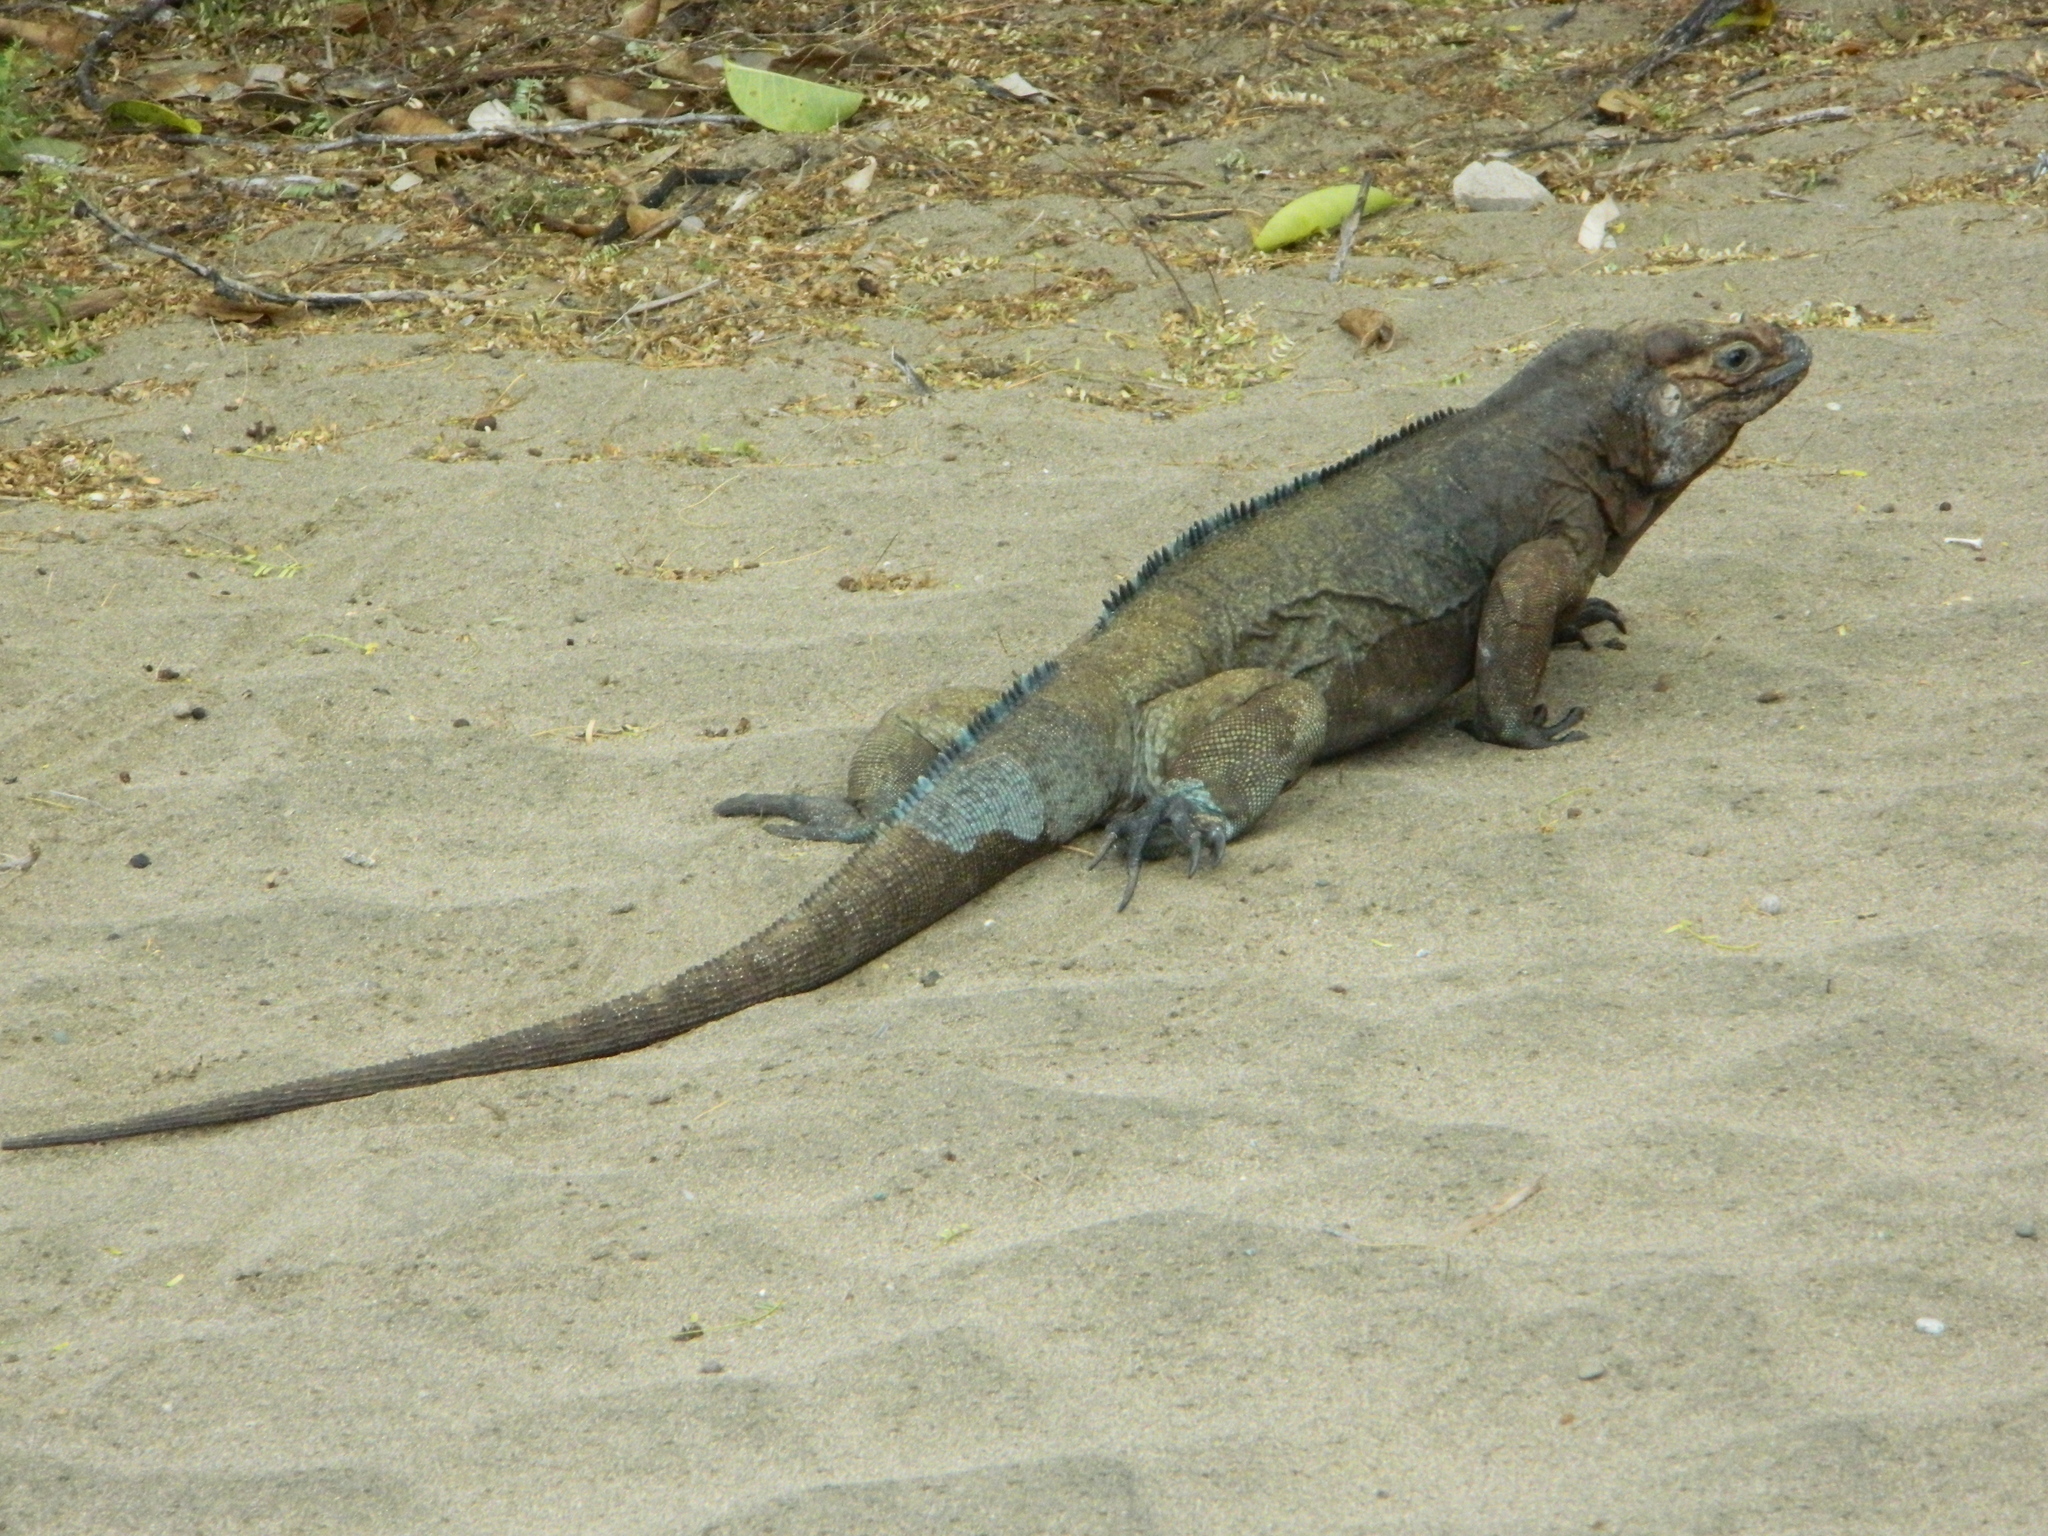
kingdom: Animalia
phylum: Chordata
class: Squamata
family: Iguanidae
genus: Cyclura
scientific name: Cyclura cornuta
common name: Hispaniolan rhinoceros iguana
